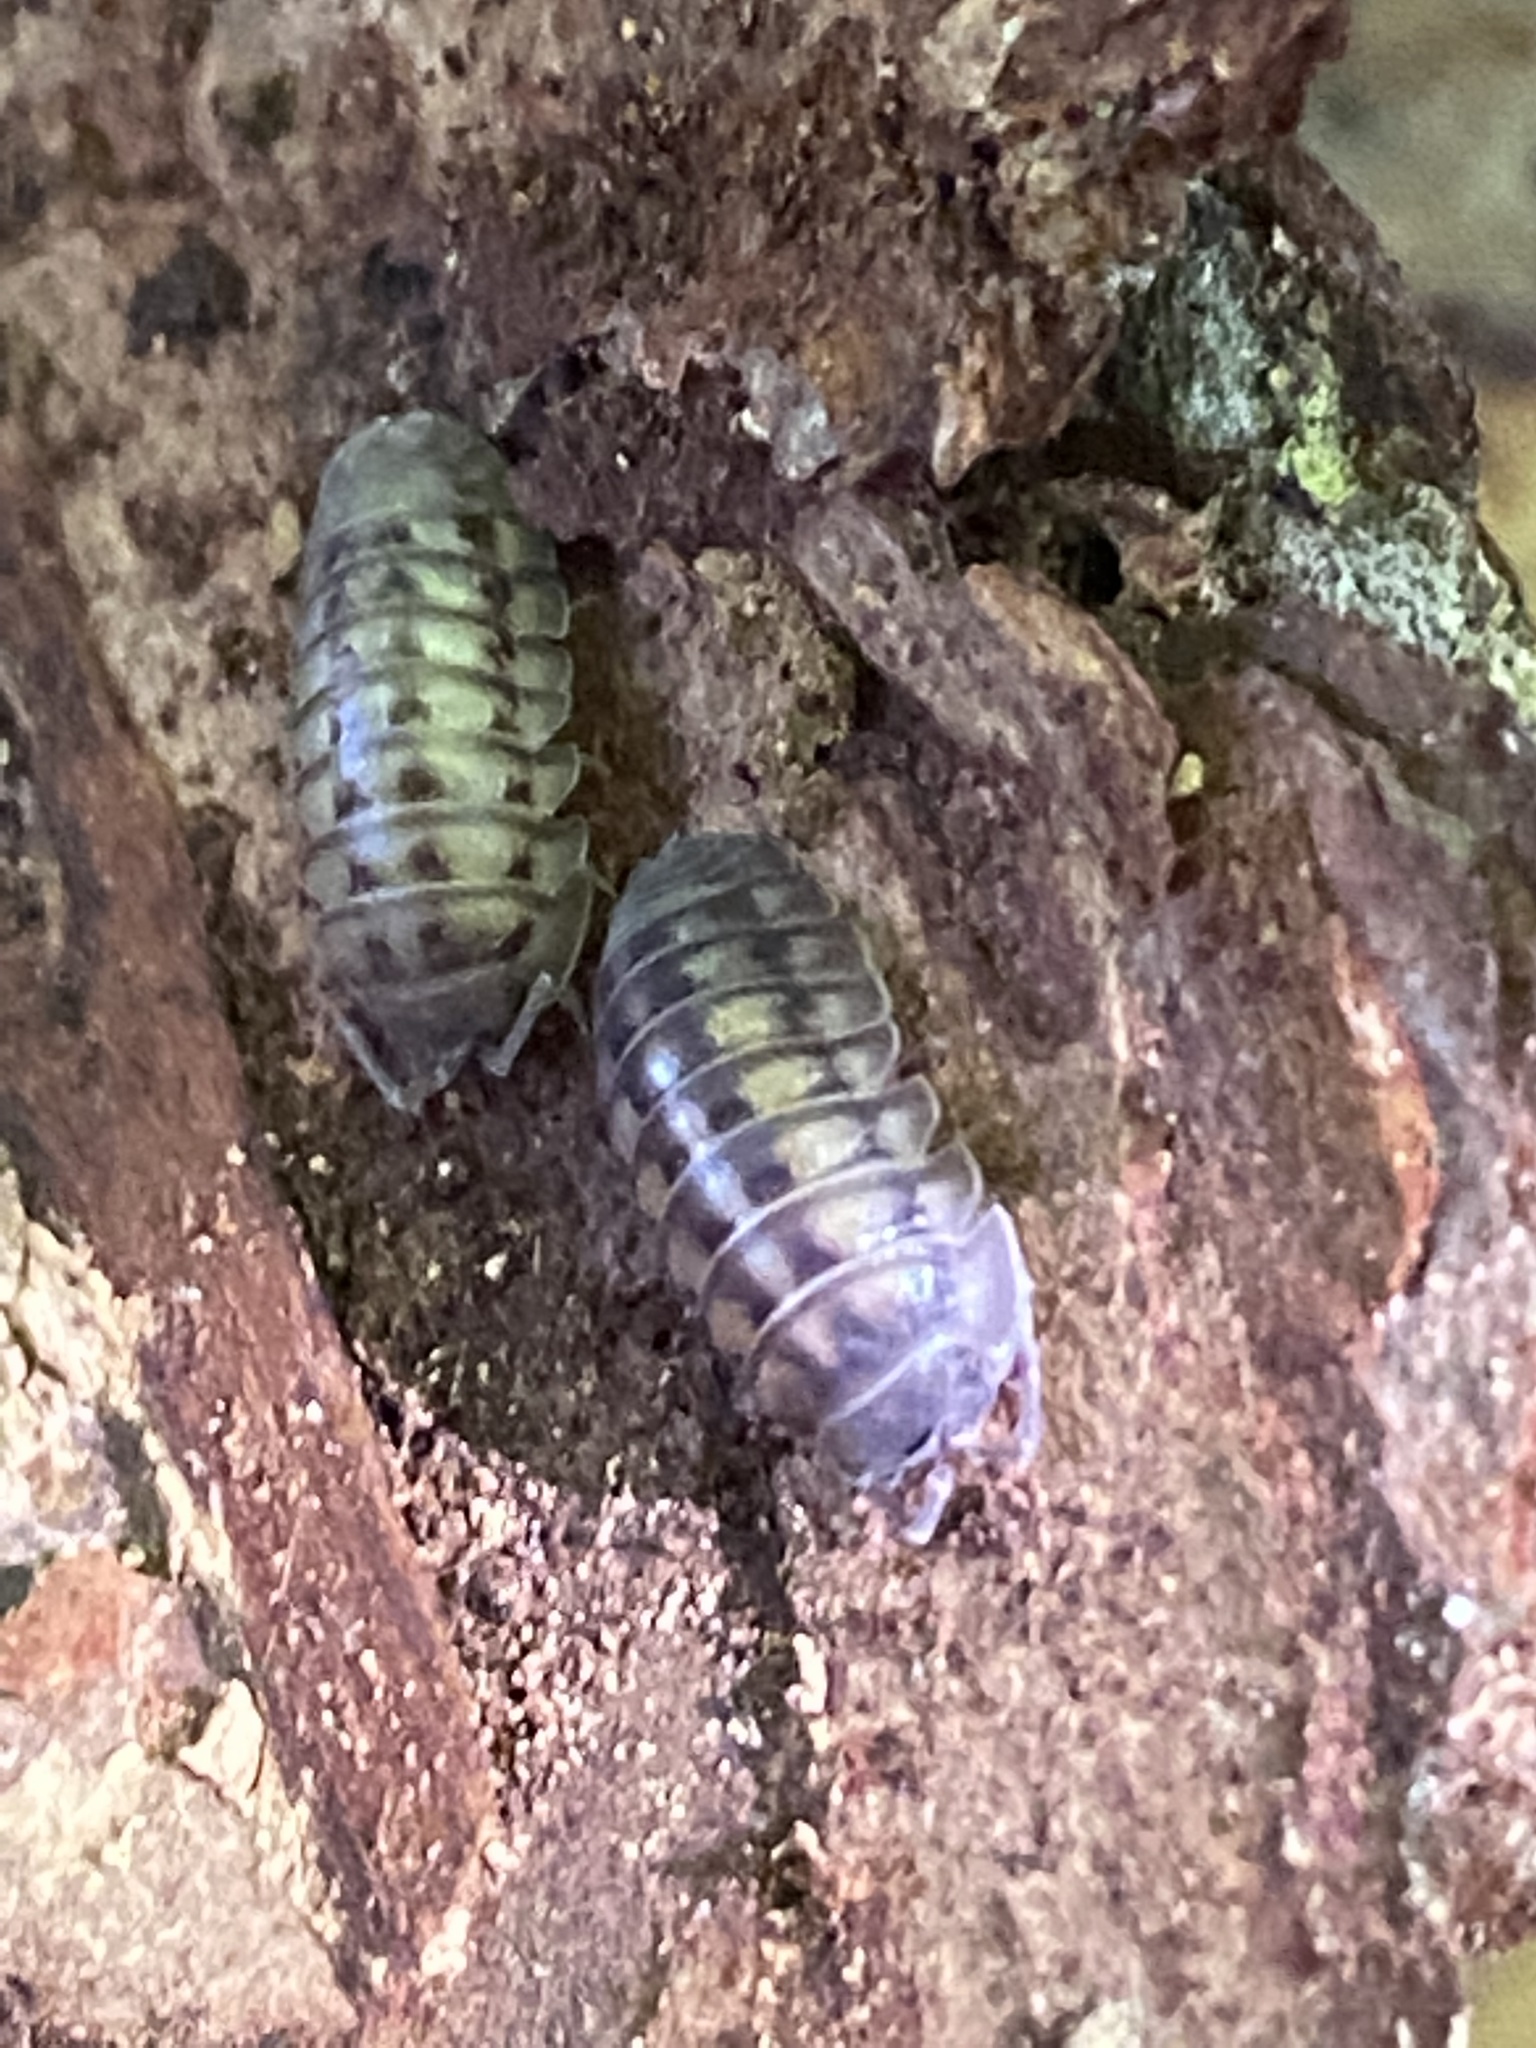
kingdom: Animalia
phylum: Arthropoda
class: Malacostraca
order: Isopoda
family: Armadillidiidae
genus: Armadillidium
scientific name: Armadillidium nasatum
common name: Isopod
